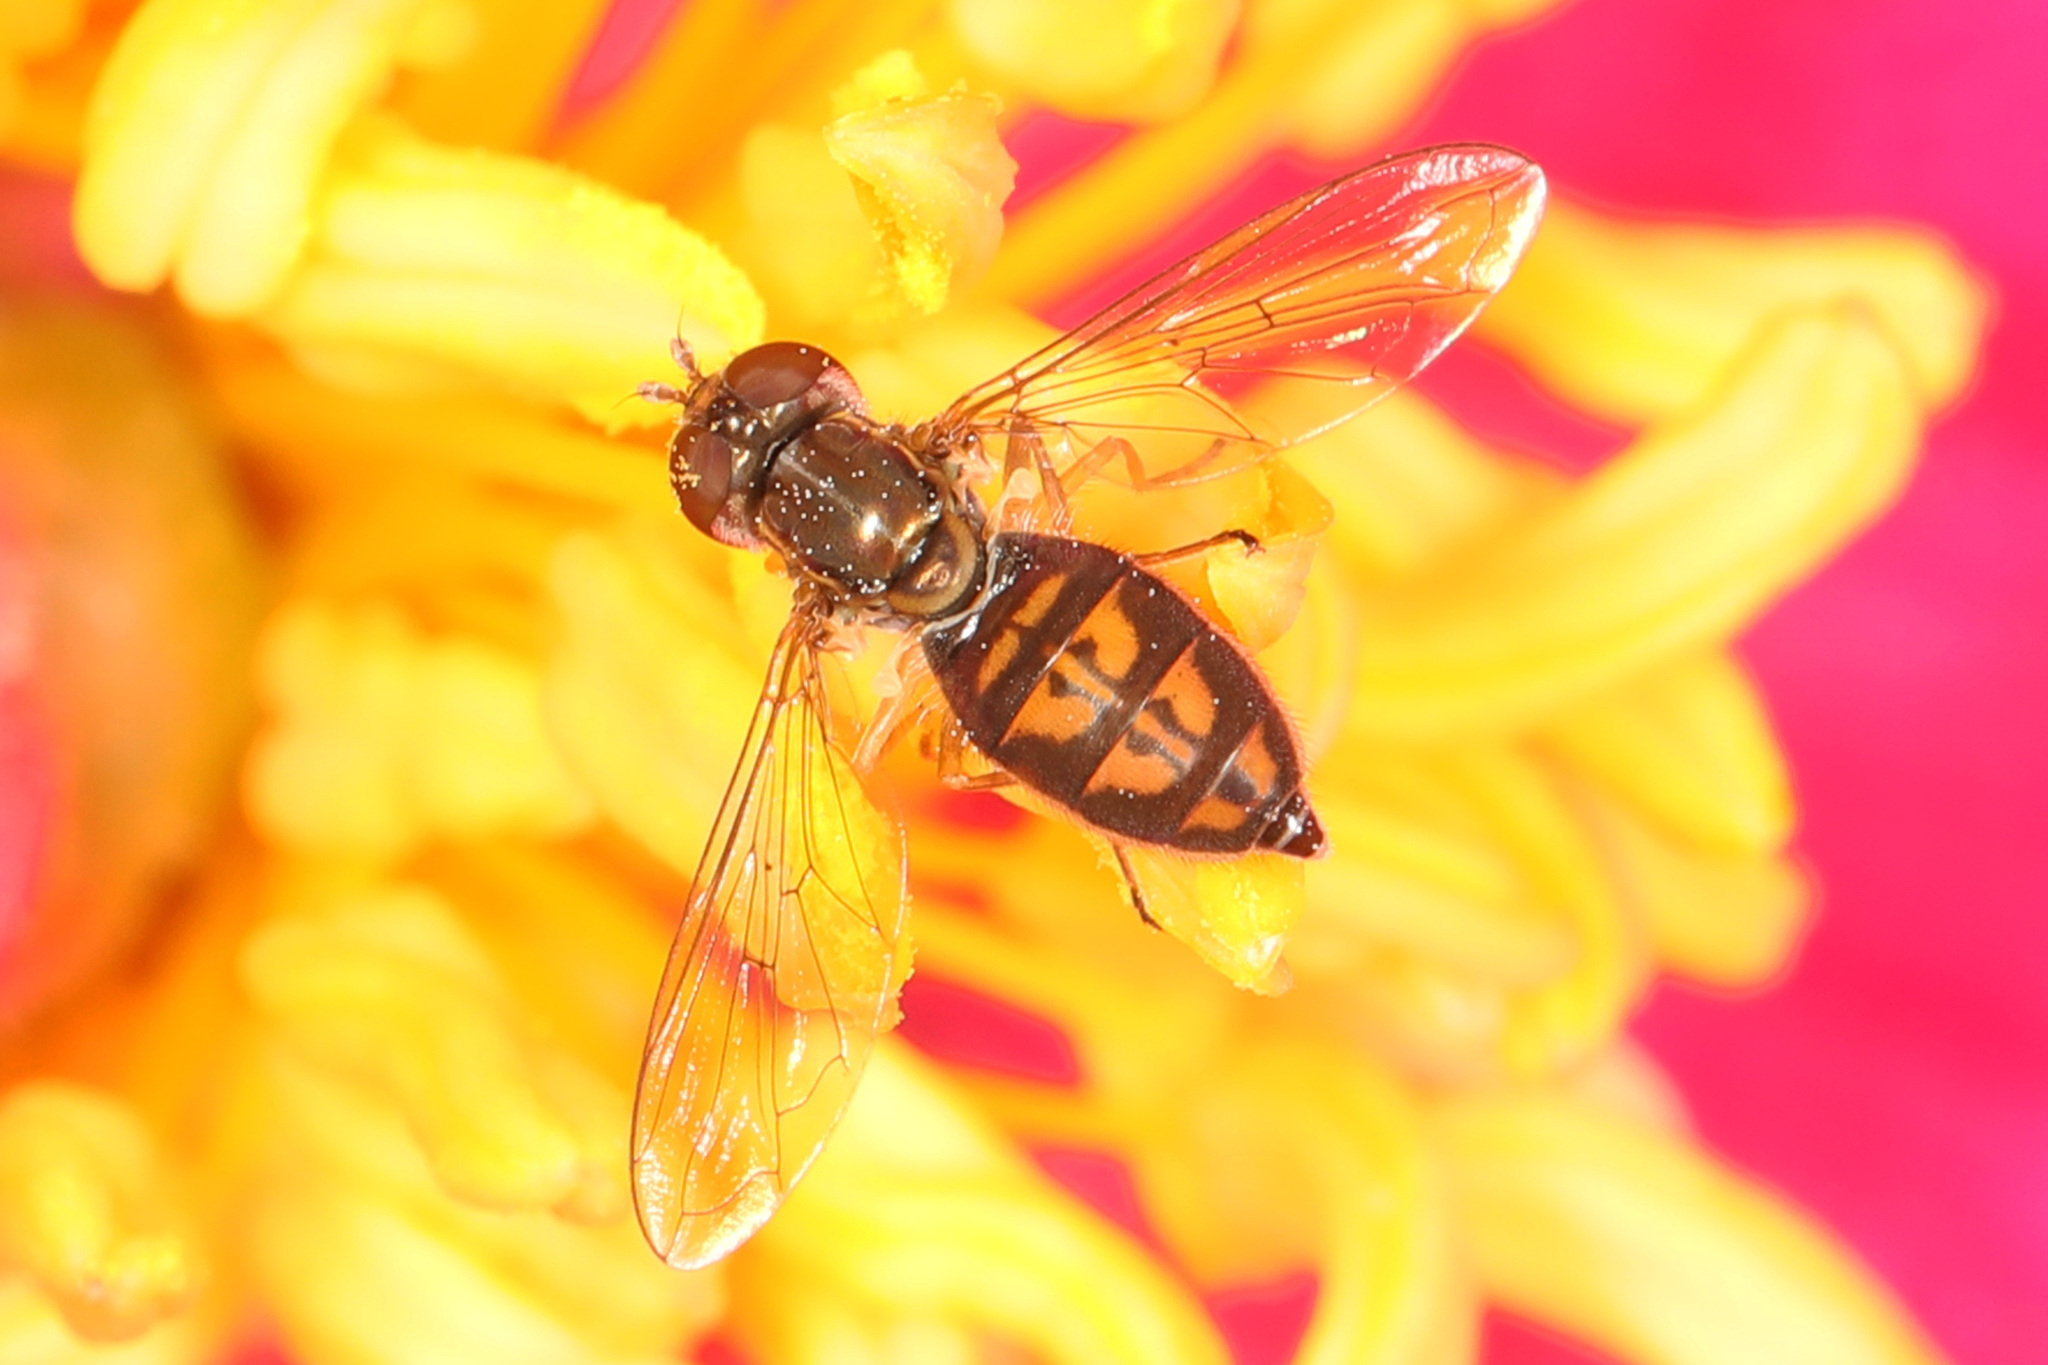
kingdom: Animalia
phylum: Arthropoda
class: Insecta
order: Diptera
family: Syrphidae
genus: Toxomerus
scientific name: Toxomerus marginatus
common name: Syrphid fly
